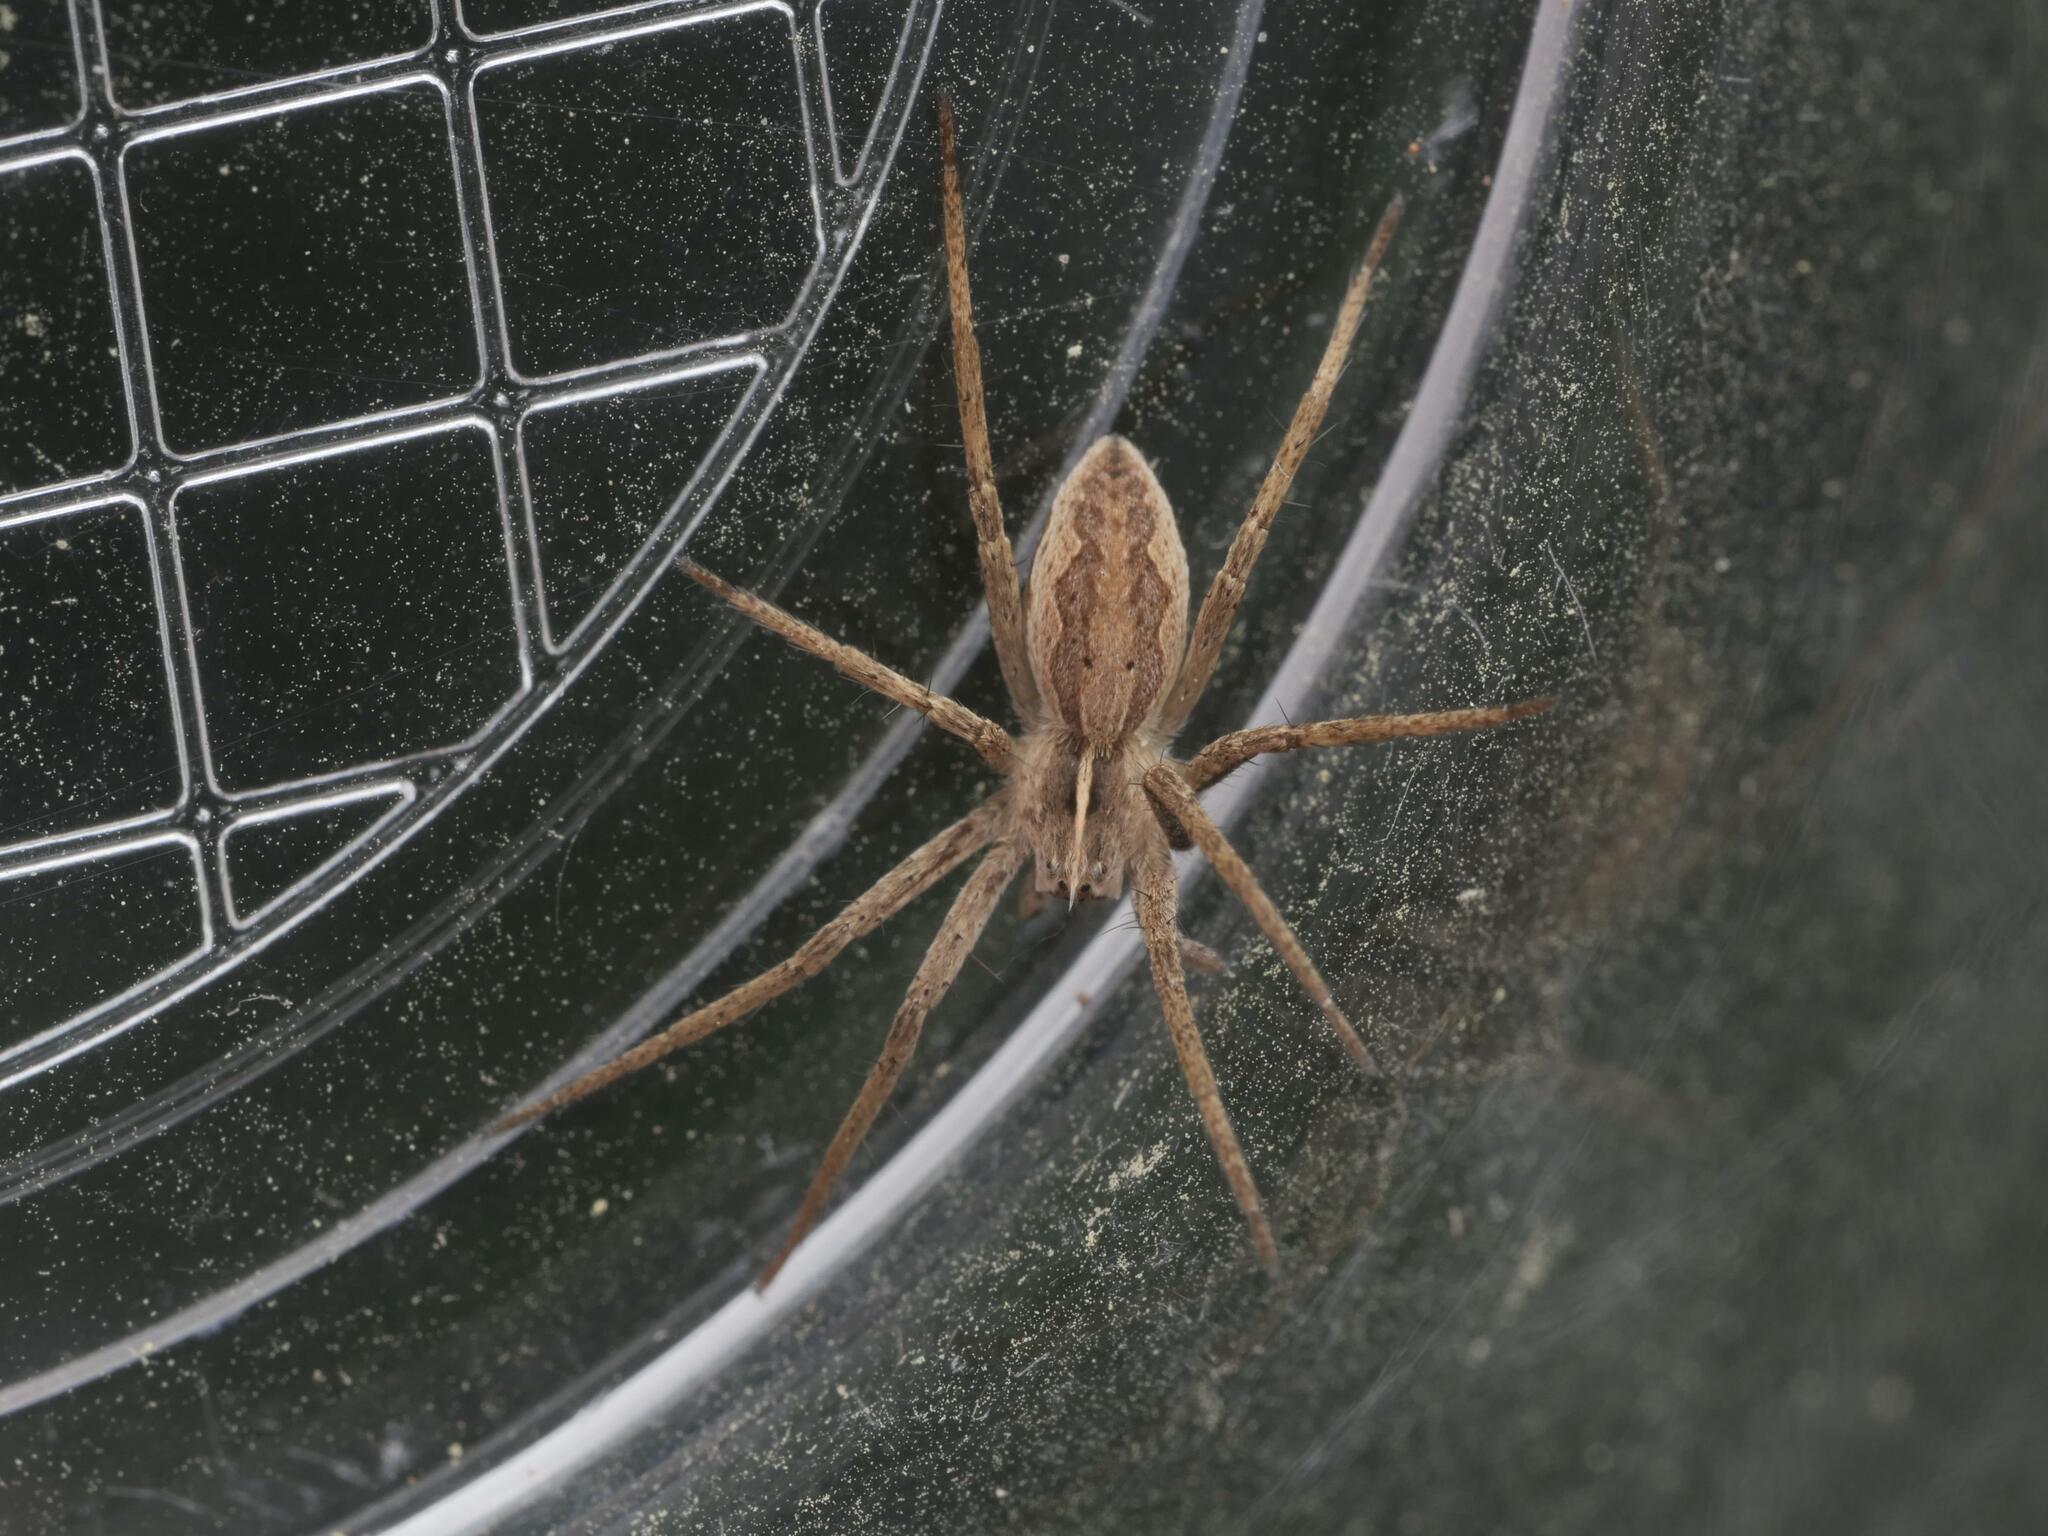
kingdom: Animalia
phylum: Arthropoda
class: Arachnida
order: Araneae
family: Pisauridae
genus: Pisaura
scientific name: Pisaura mirabilis
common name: Tent spider
